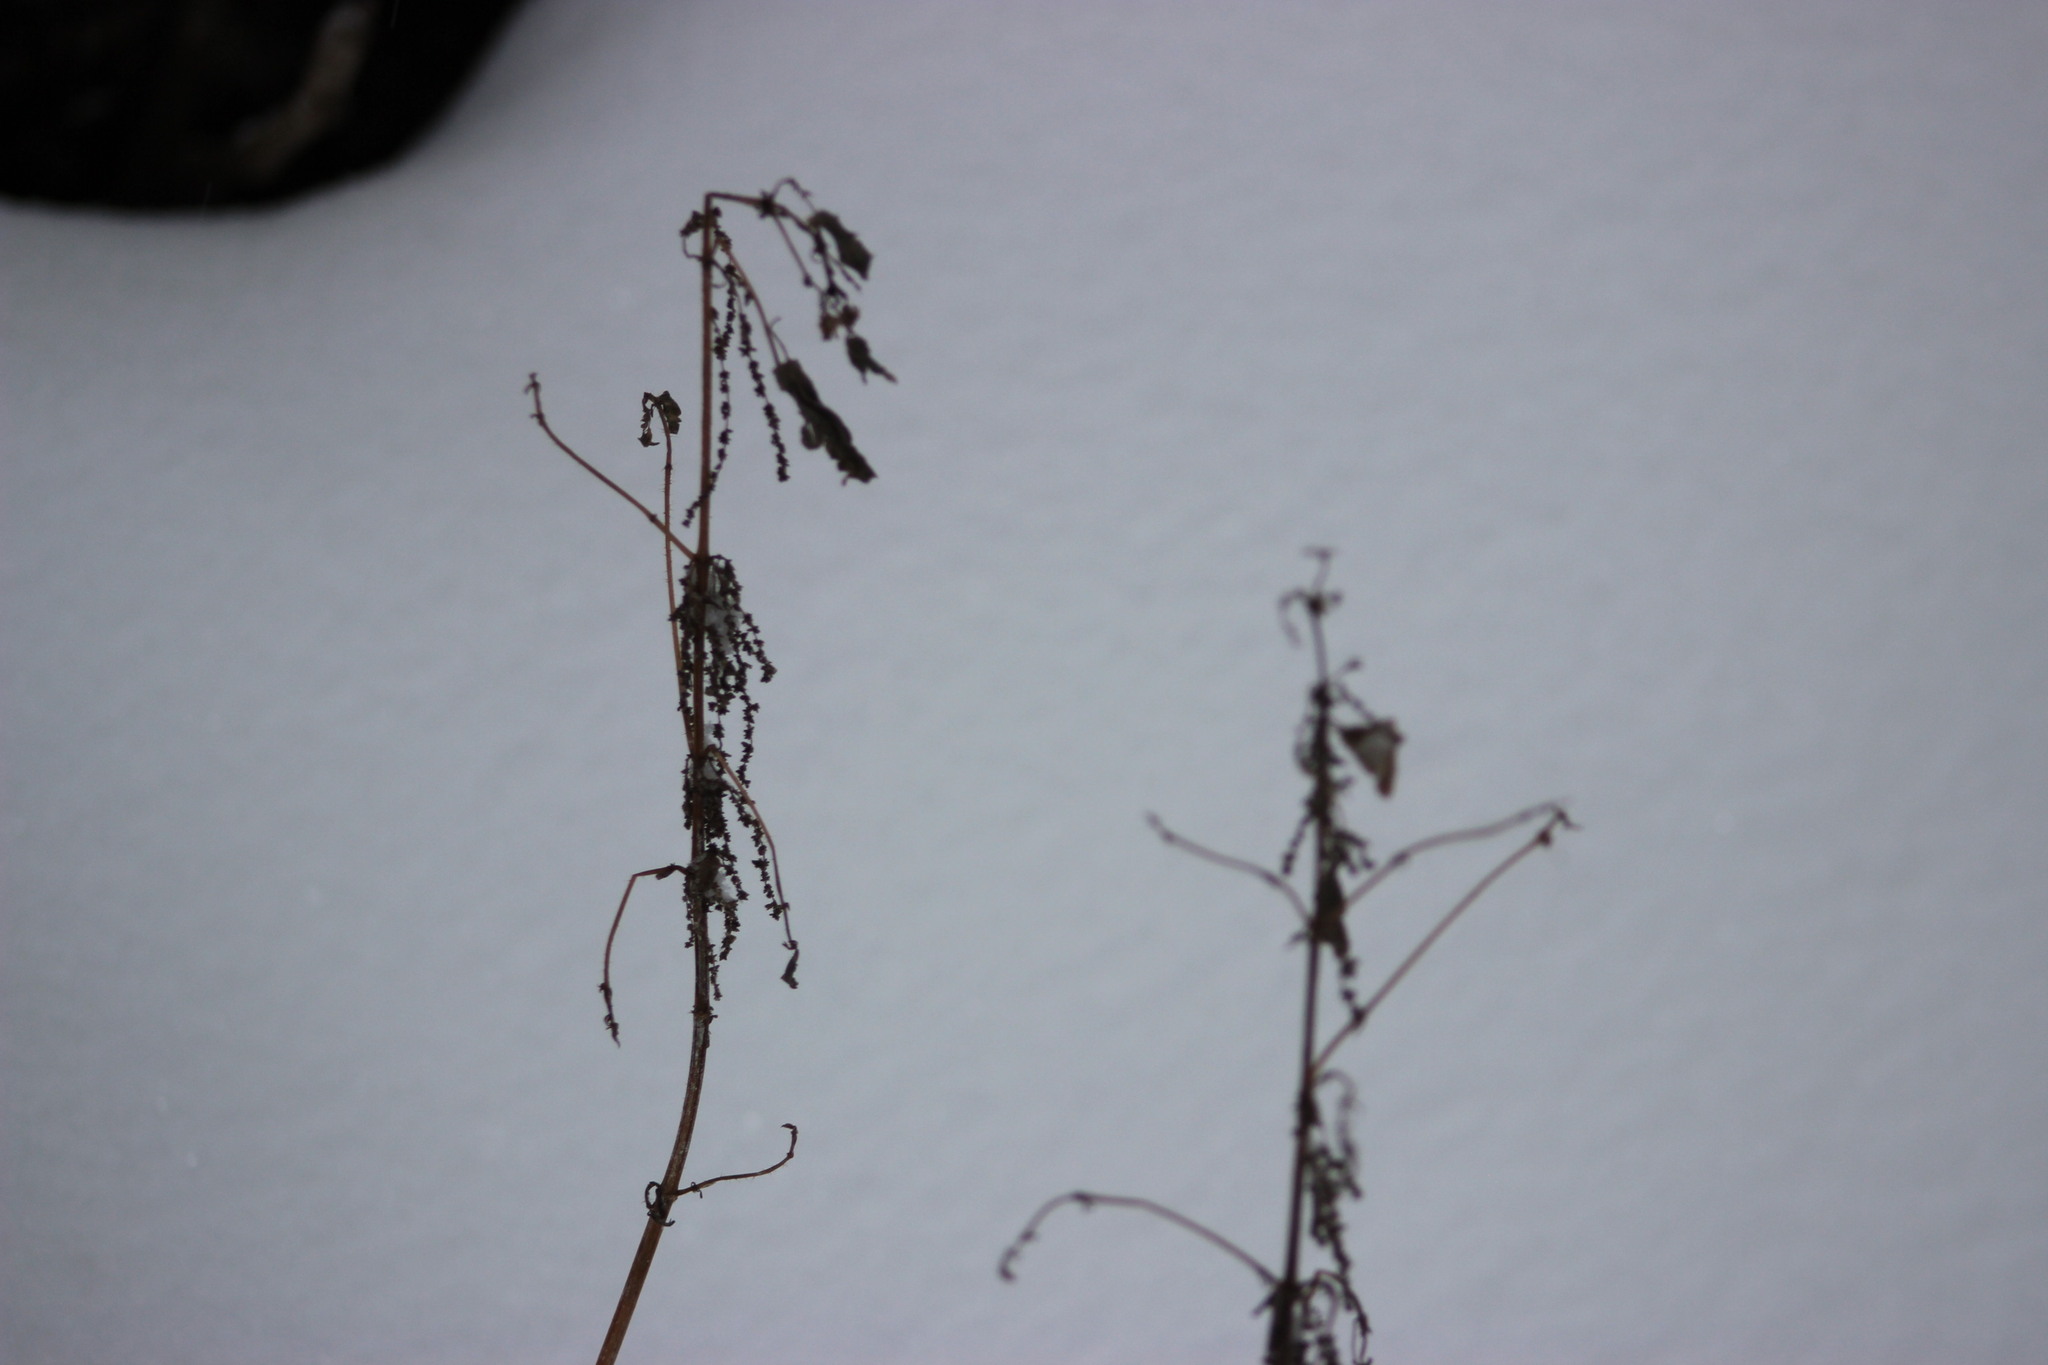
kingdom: Plantae
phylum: Tracheophyta
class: Magnoliopsida
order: Rosales
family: Urticaceae
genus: Urtica
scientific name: Urtica dioica
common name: Common nettle
